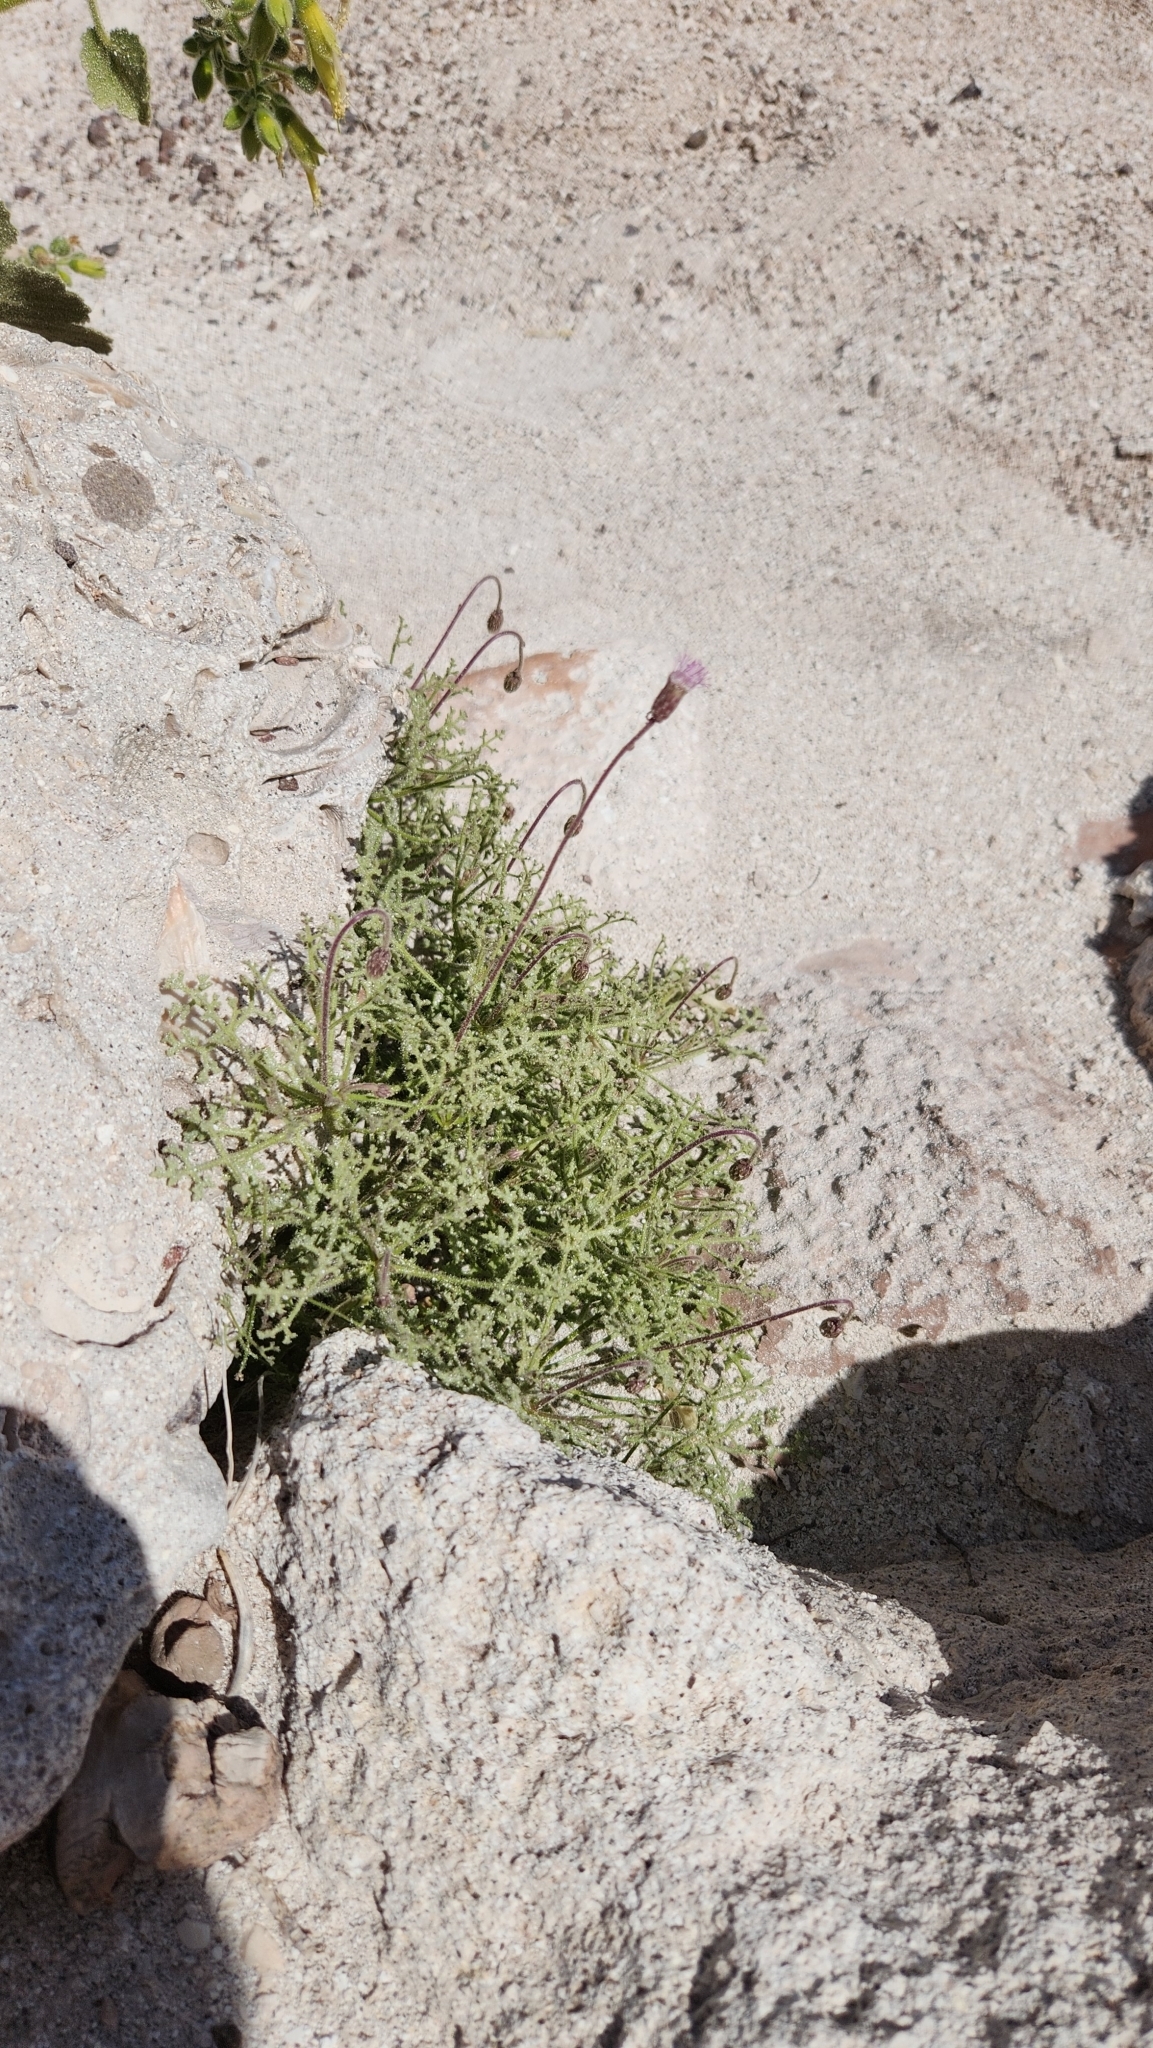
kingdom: Plantae
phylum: Tracheophyta
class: Magnoliopsida
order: Asterales
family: Asteraceae
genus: Hofmeisteria
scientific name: Hofmeisteria fasciculata
